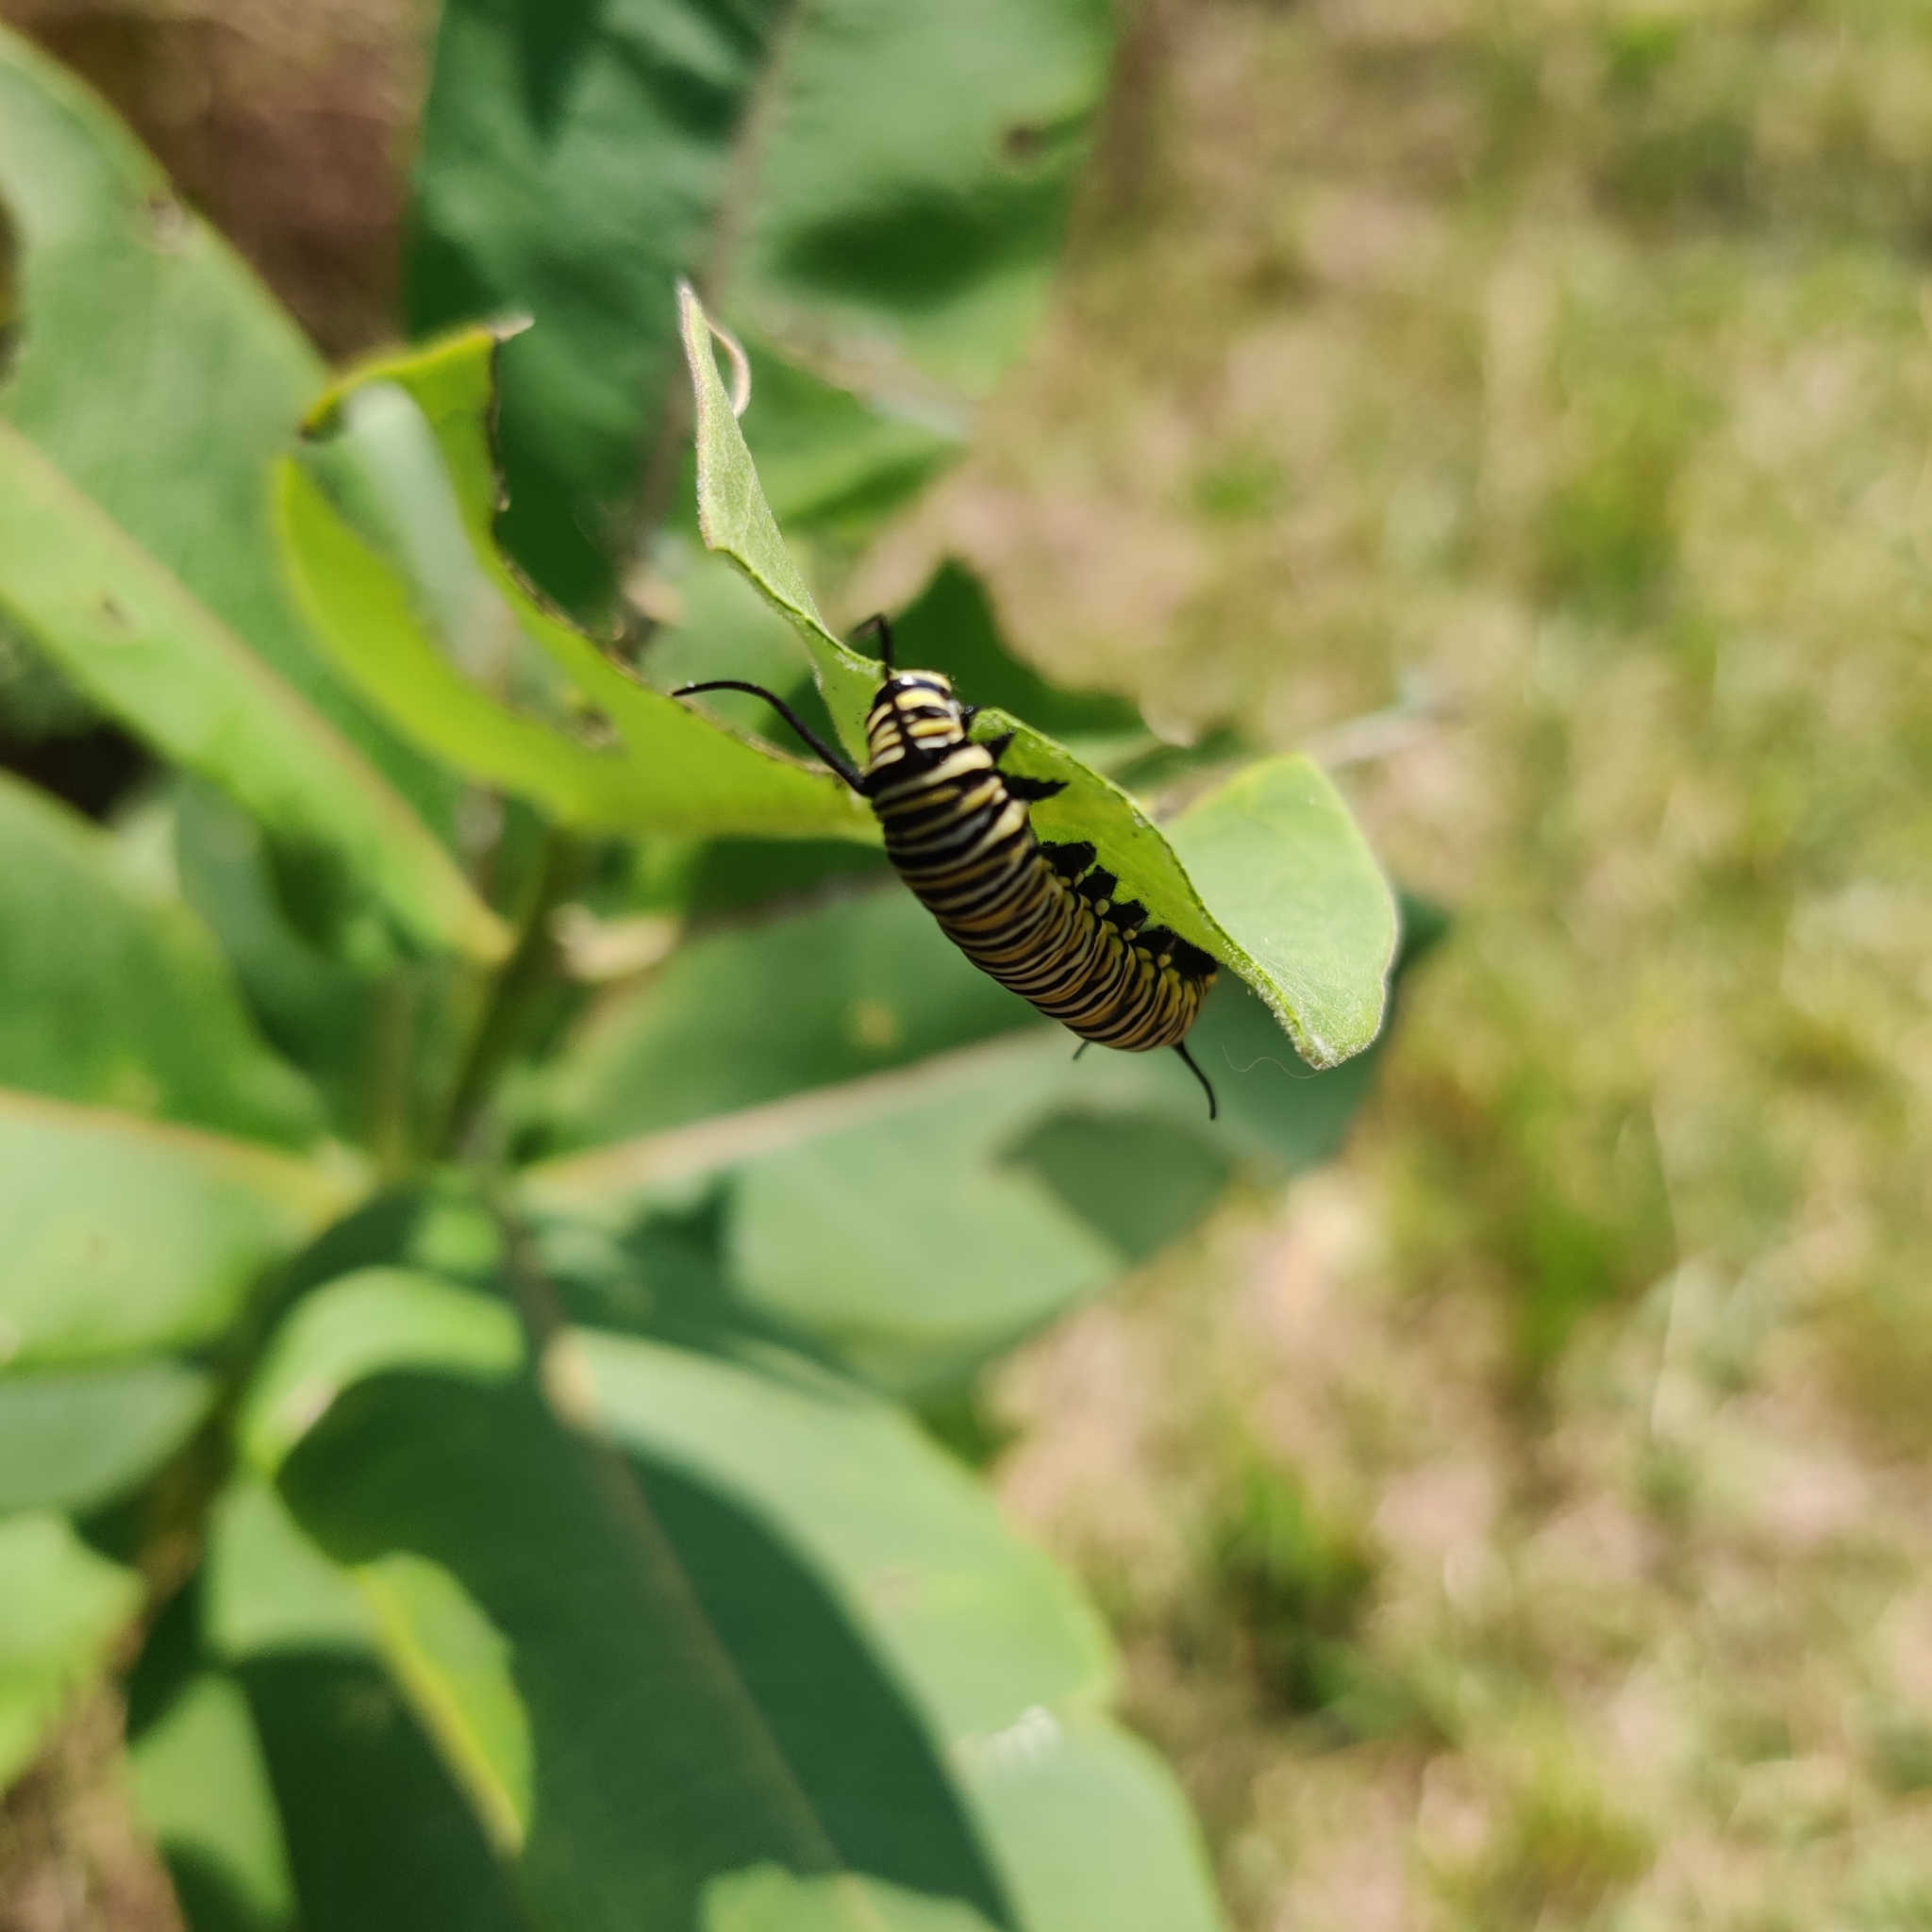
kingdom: Animalia
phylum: Arthropoda
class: Insecta
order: Lepidoptera
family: Nymphalidae
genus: Danaus
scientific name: Danaus plexippus
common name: Monarch
